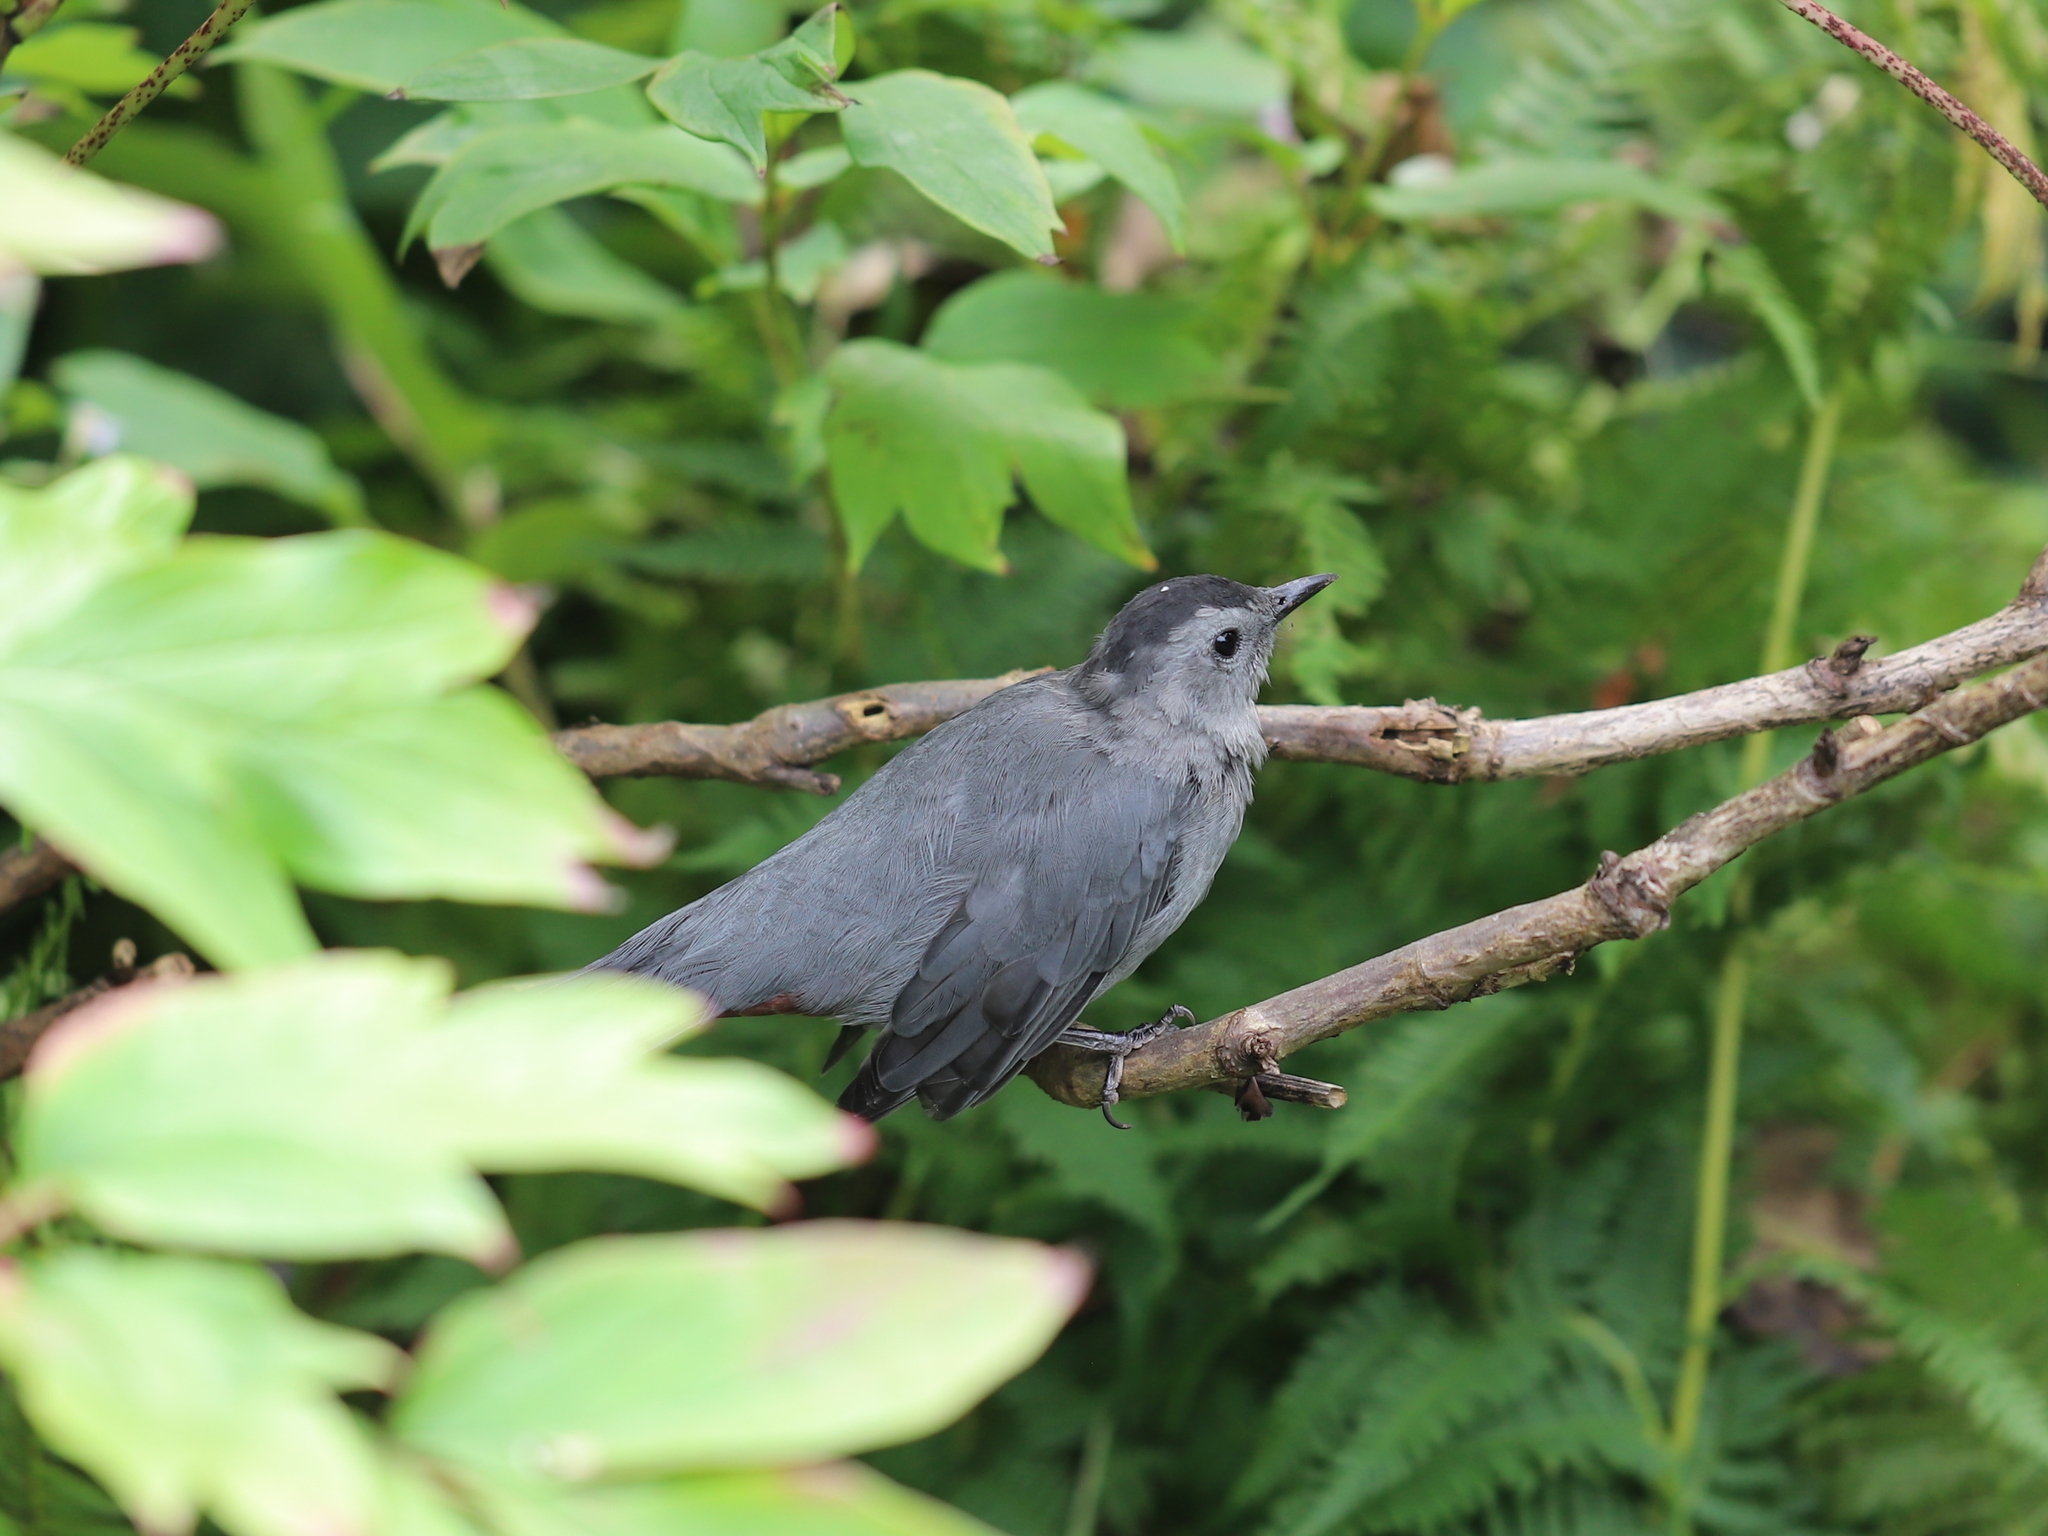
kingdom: Animalia
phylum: Chordata
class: Aves
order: Passeriformes
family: Mimidae
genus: Dumetella
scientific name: Dumetella carolinensis
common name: Gray catbird
